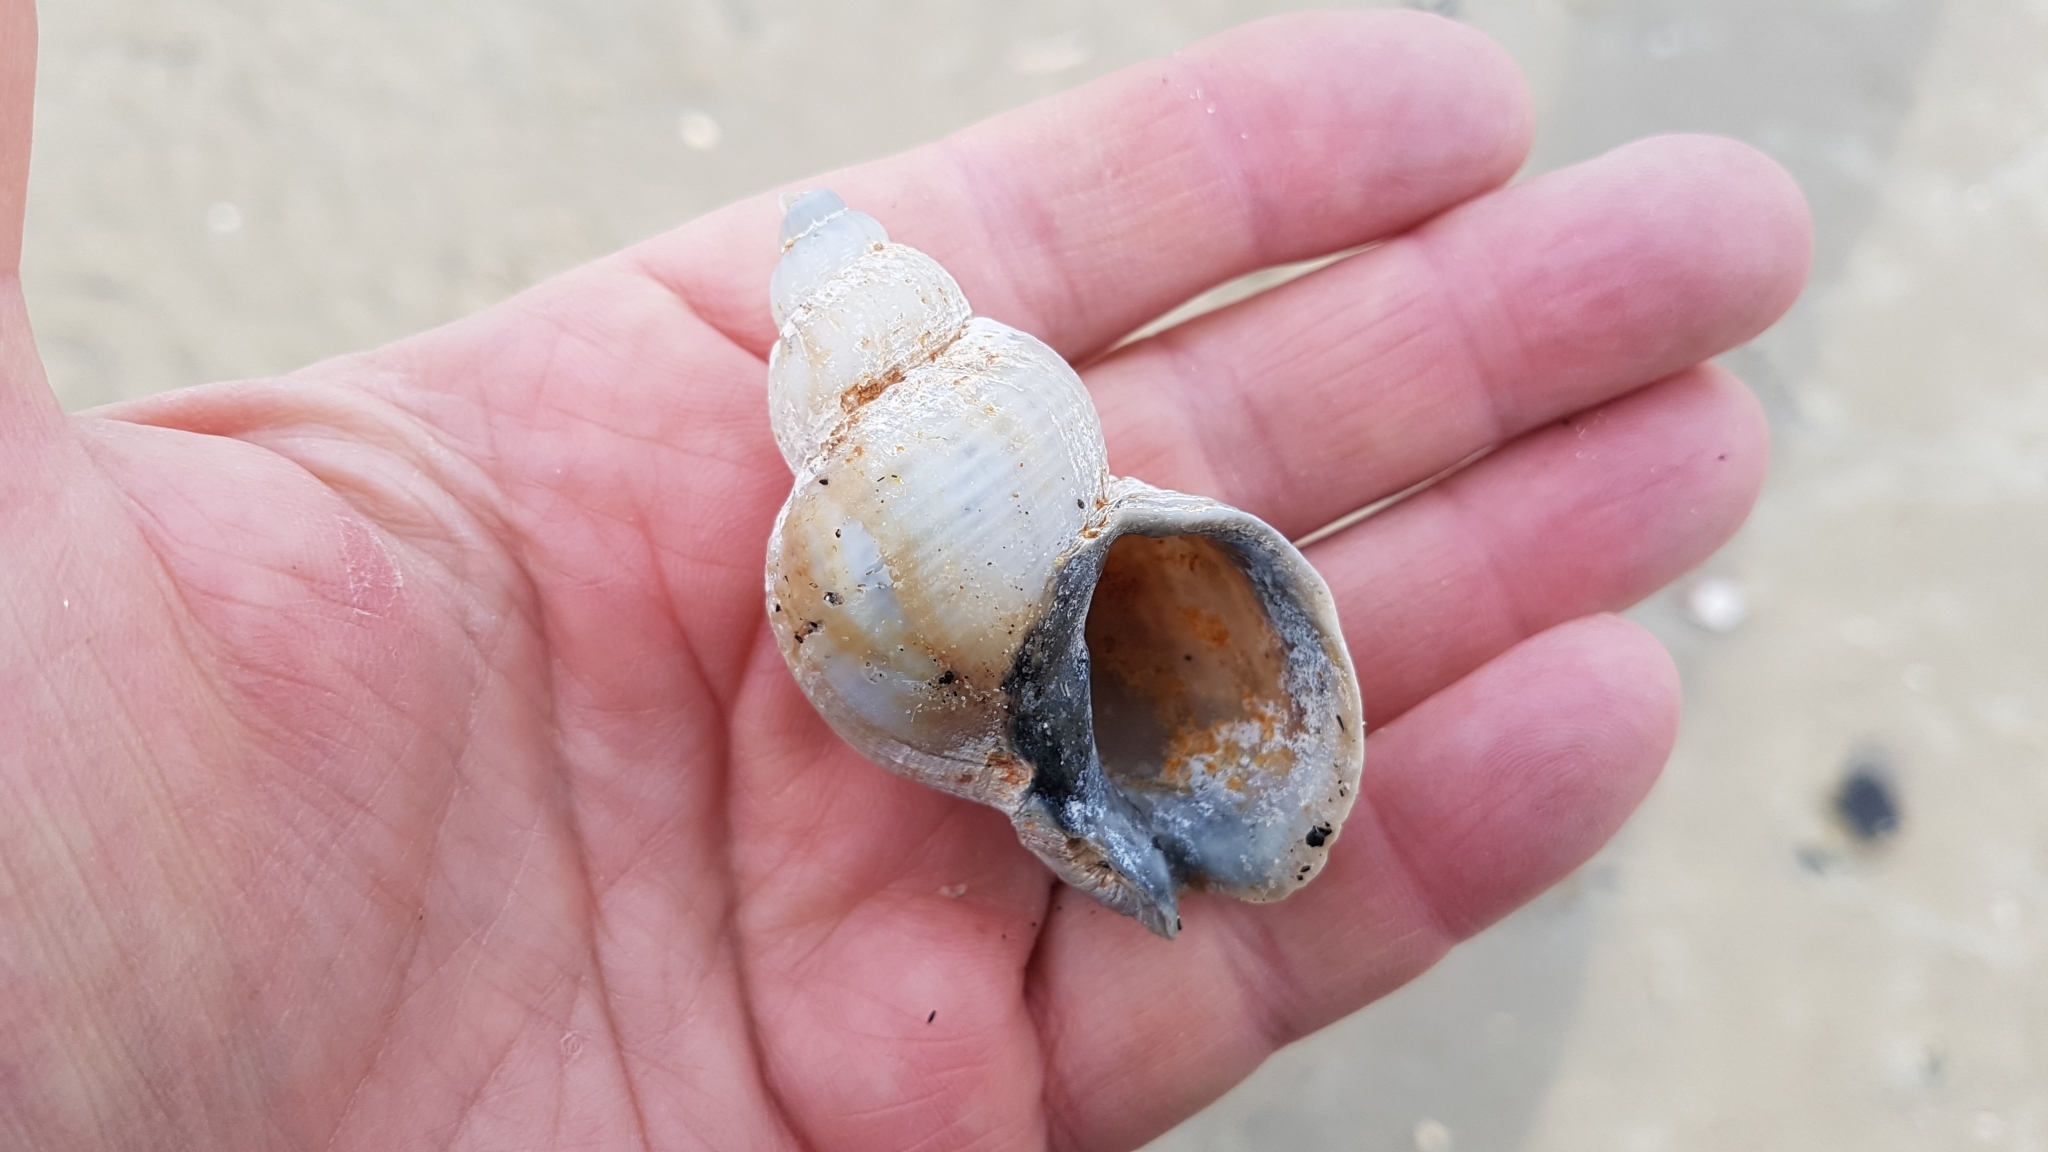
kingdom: Animalia
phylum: Mollusca
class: Gastropoda
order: Neogastropoda
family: Buccinidae
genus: Buccinum
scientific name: Buccinum undatum
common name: Common whelk
